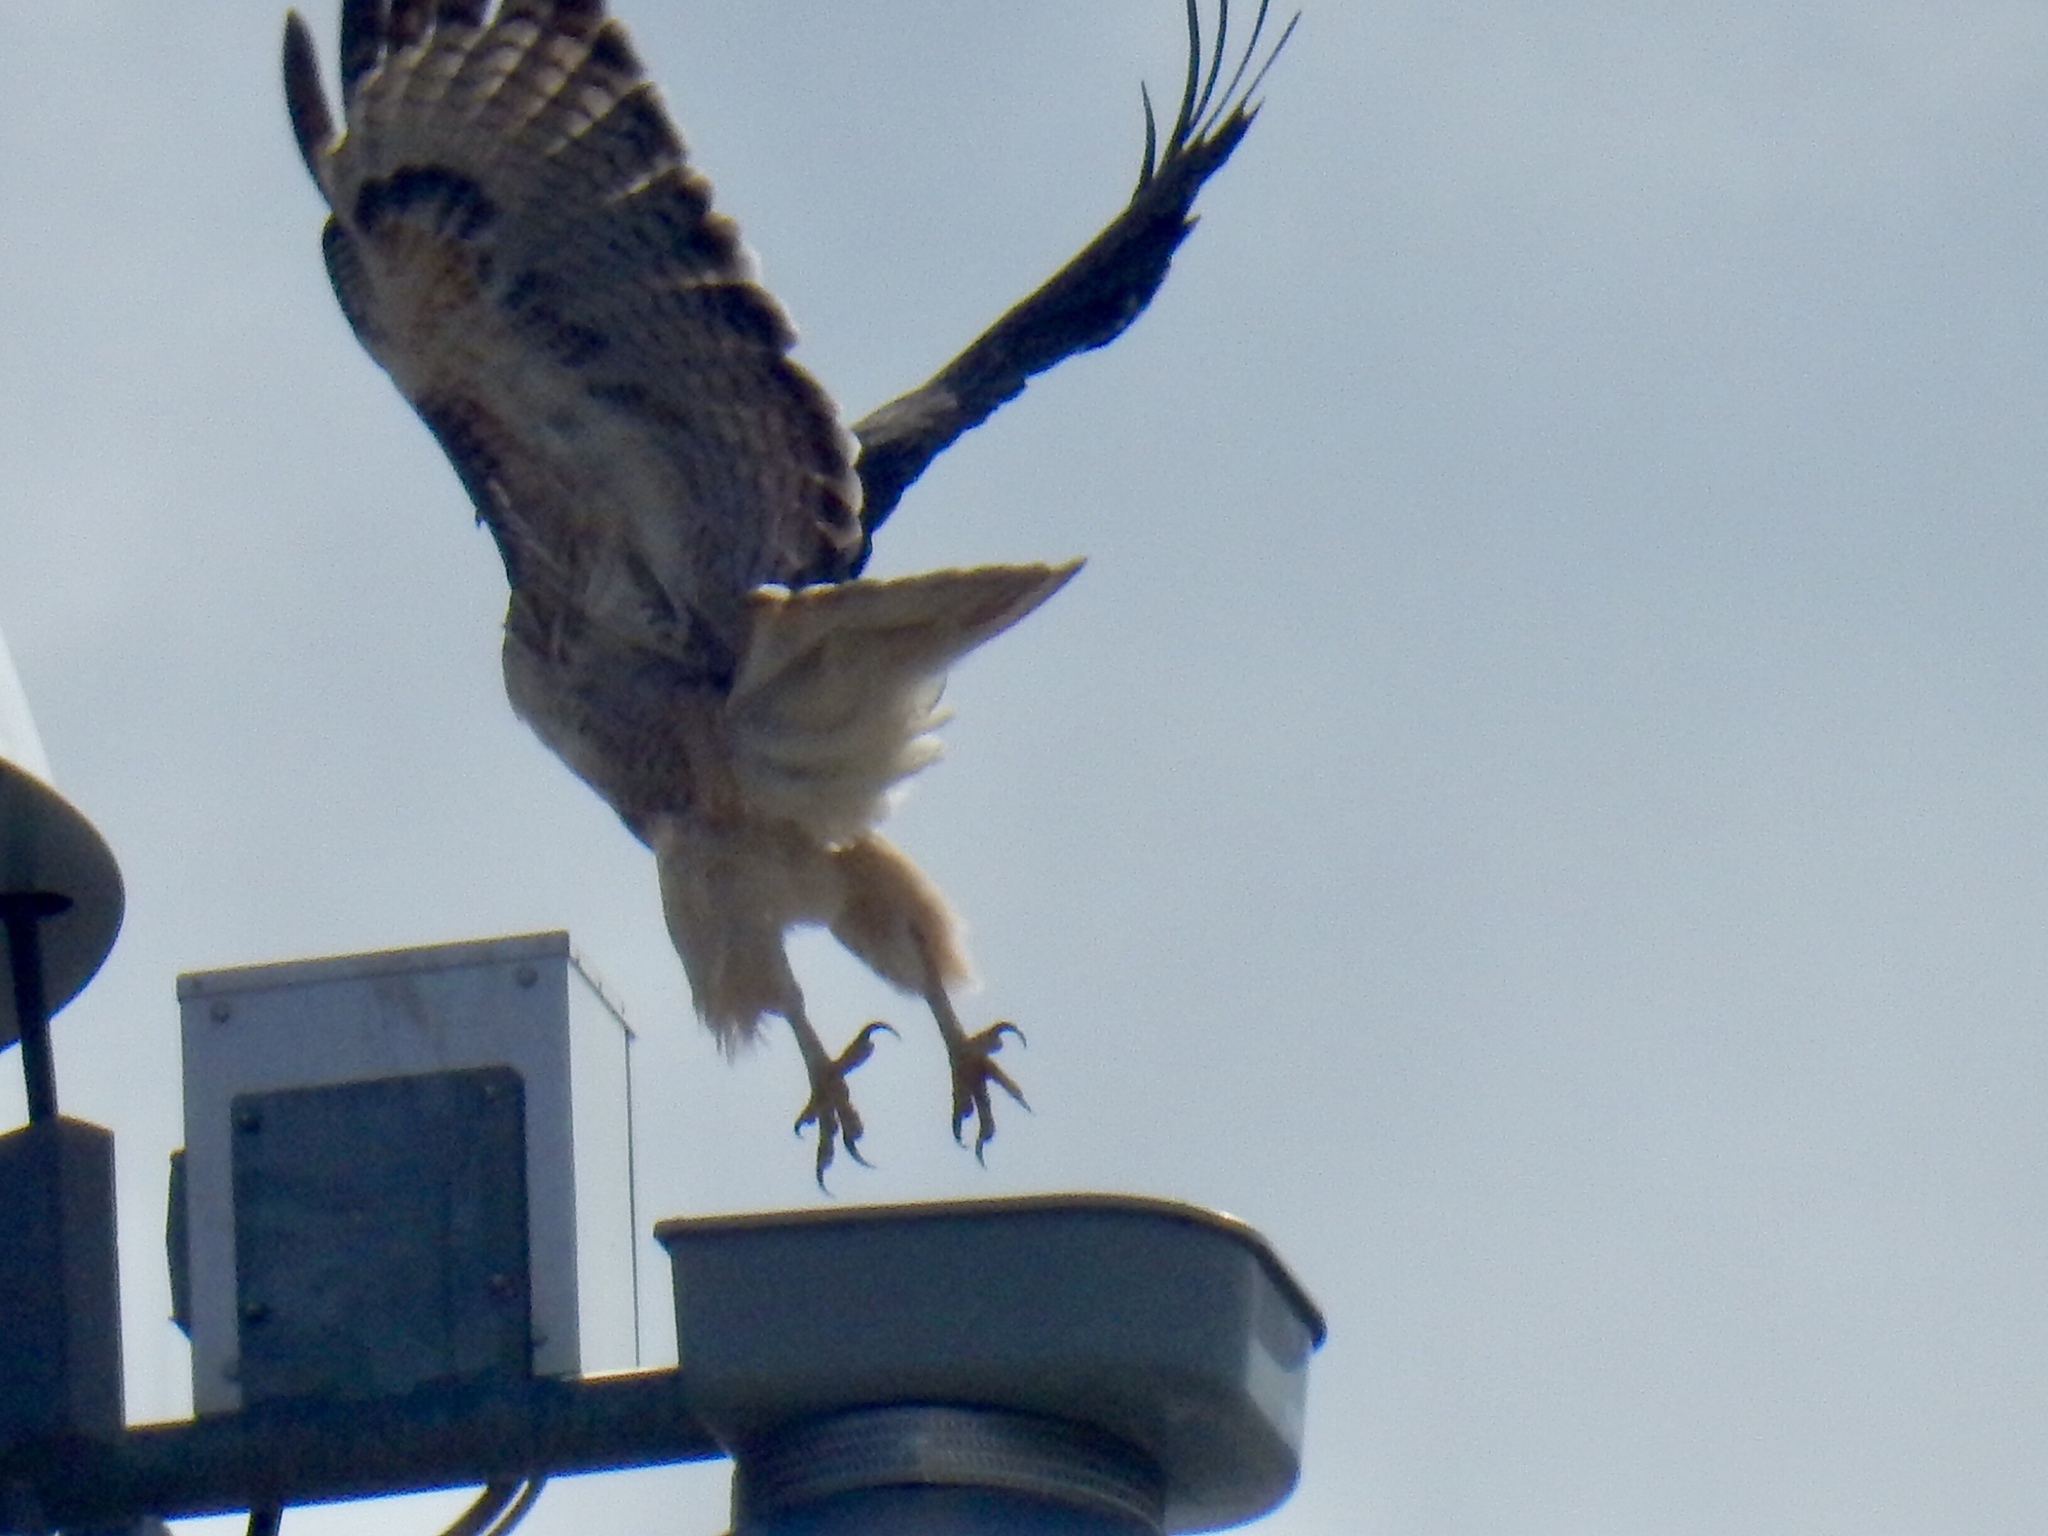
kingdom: Animalia
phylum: Chordata
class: Aves
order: Accipitriformes
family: Accipitridae
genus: Buteo
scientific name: Buteo jamaicensis
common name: Red-tailed hawk
